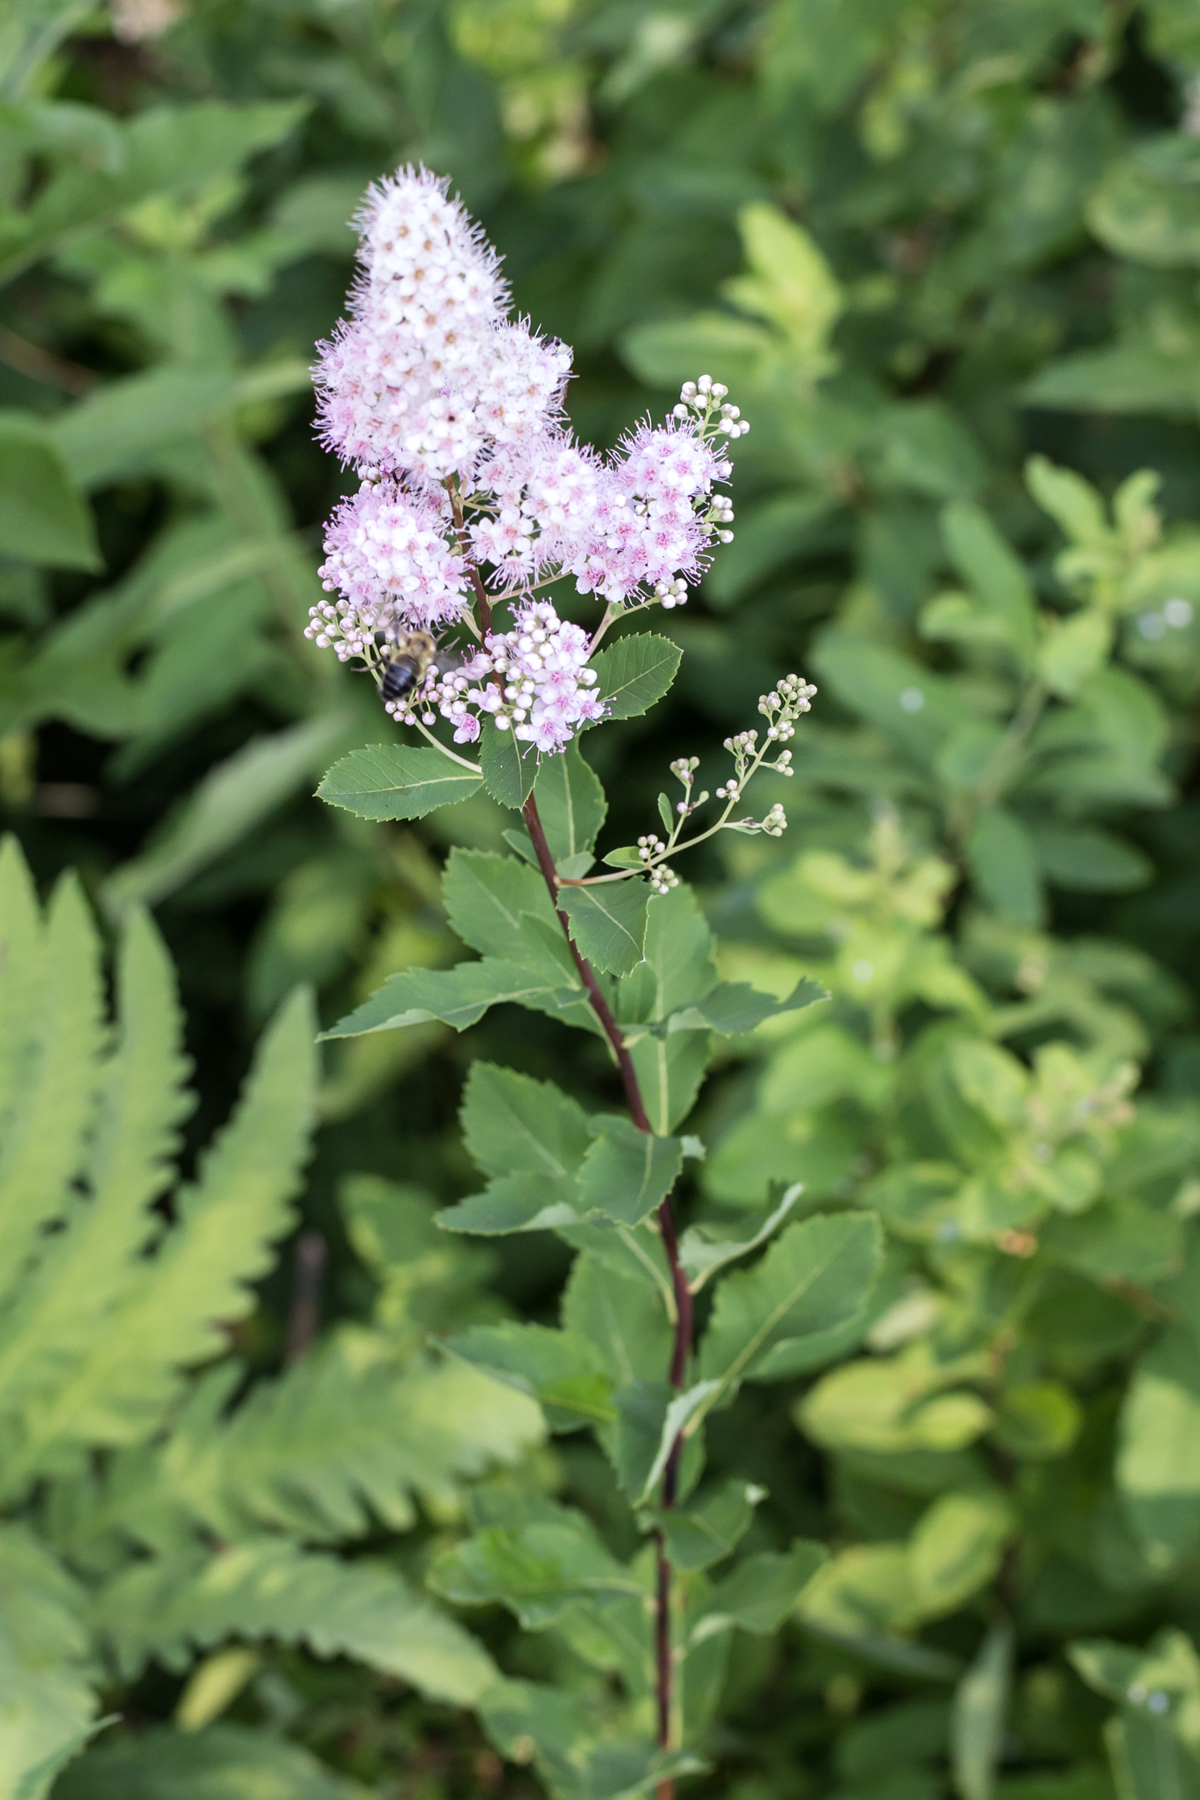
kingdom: Plantae
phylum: Tracheophyta
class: Magnoliopsida
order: Rosales
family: Rosaceae
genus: Spiraea
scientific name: Spiraea alba
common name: Pale bridewort
